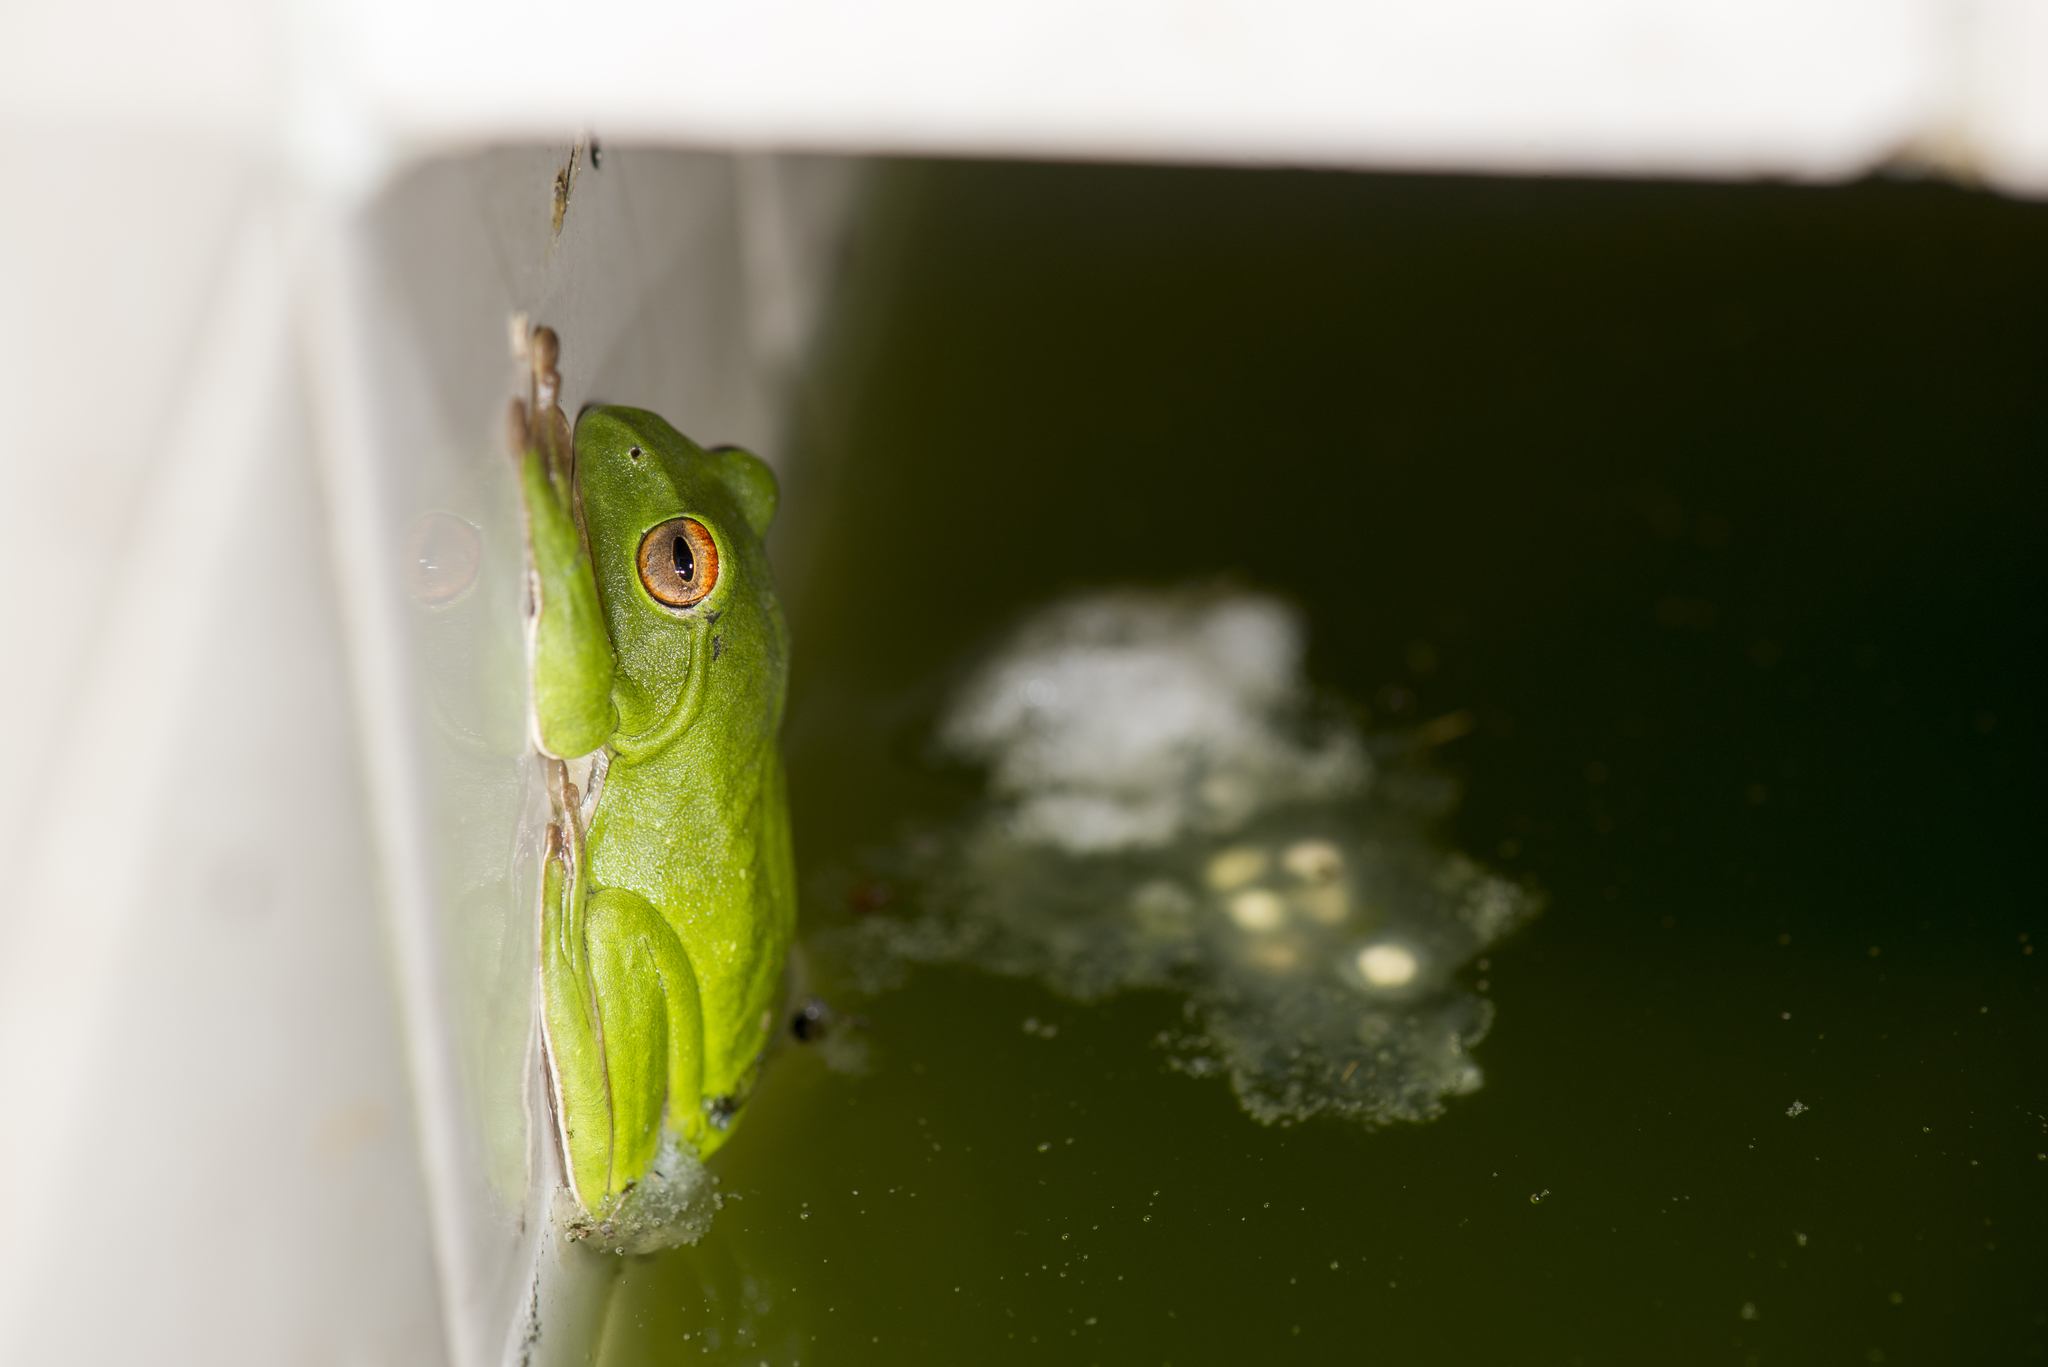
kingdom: Animalia
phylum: Chordata
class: Amphibia
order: Anura
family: Rhacophoridae
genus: Zhangixalus
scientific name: Zhangixalus moltrechti
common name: Moltrecht's treefrog
